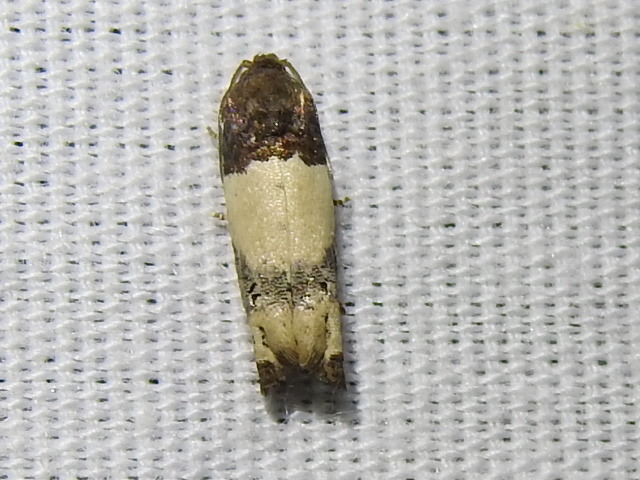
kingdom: Animalia
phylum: Arthropoda
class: Insecta
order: Lepidoptera
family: Tortricidae
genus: Epiblema
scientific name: Epiblema scudderiana
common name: Goldenrod gall moth
